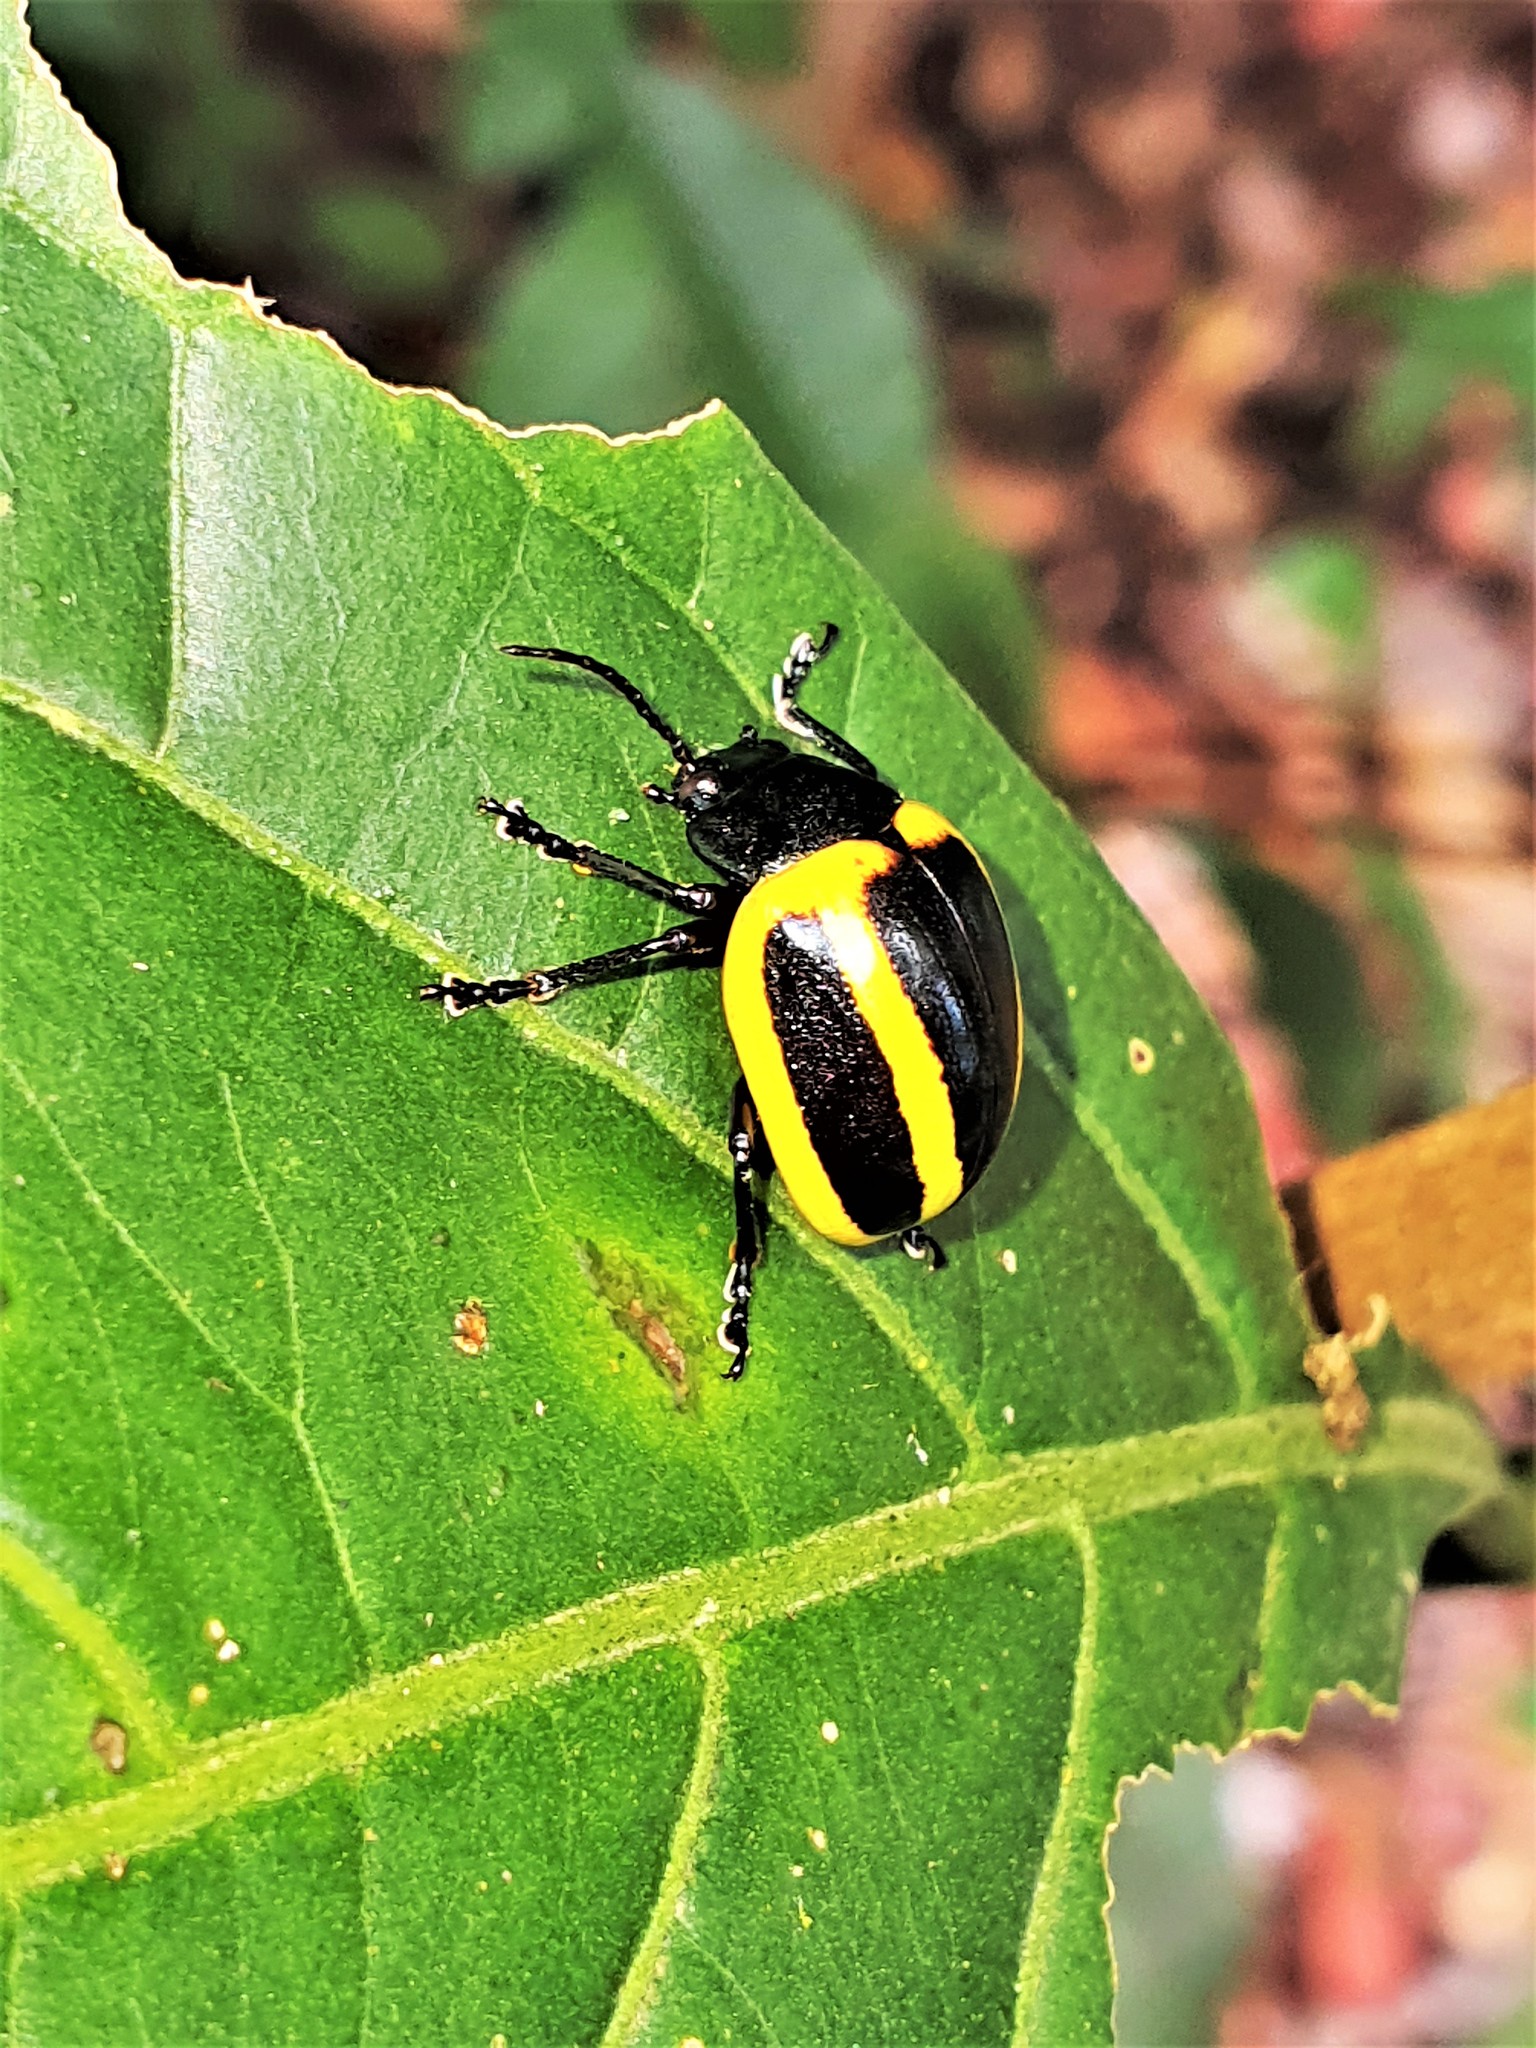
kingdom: Animalia
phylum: Arthropoda
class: Insecta
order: Coleoptera
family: Chrysomelidae
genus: Proseicela
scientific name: Proseicela vittata
